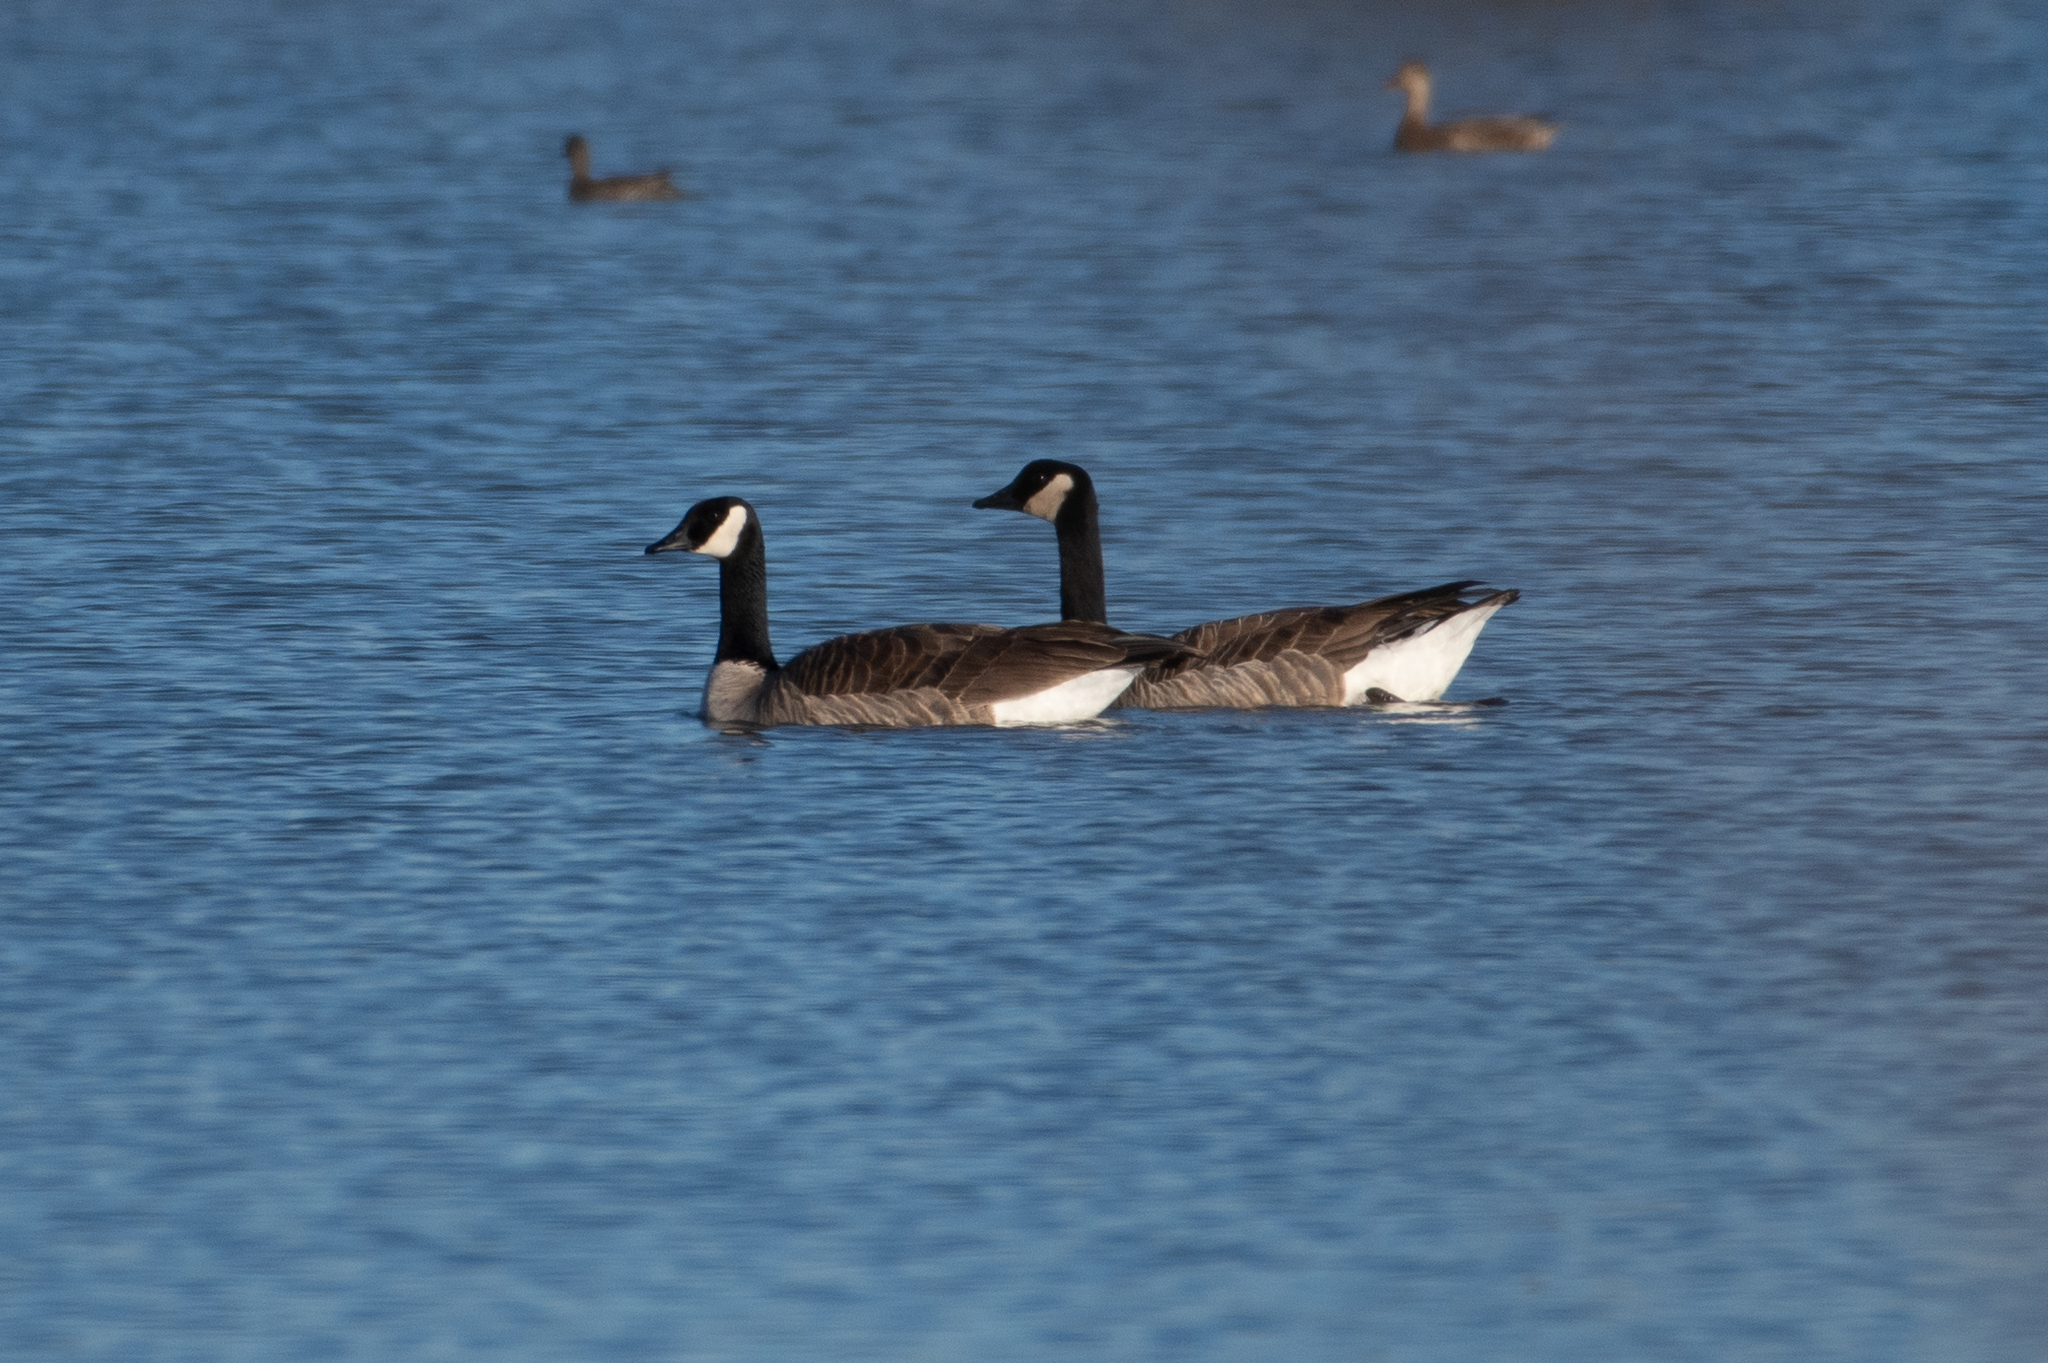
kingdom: Animalia
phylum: Chordata
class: Aves
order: Anseriformes
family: Anatidae
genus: Branta
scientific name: Branta canadensis
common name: Canada goose
